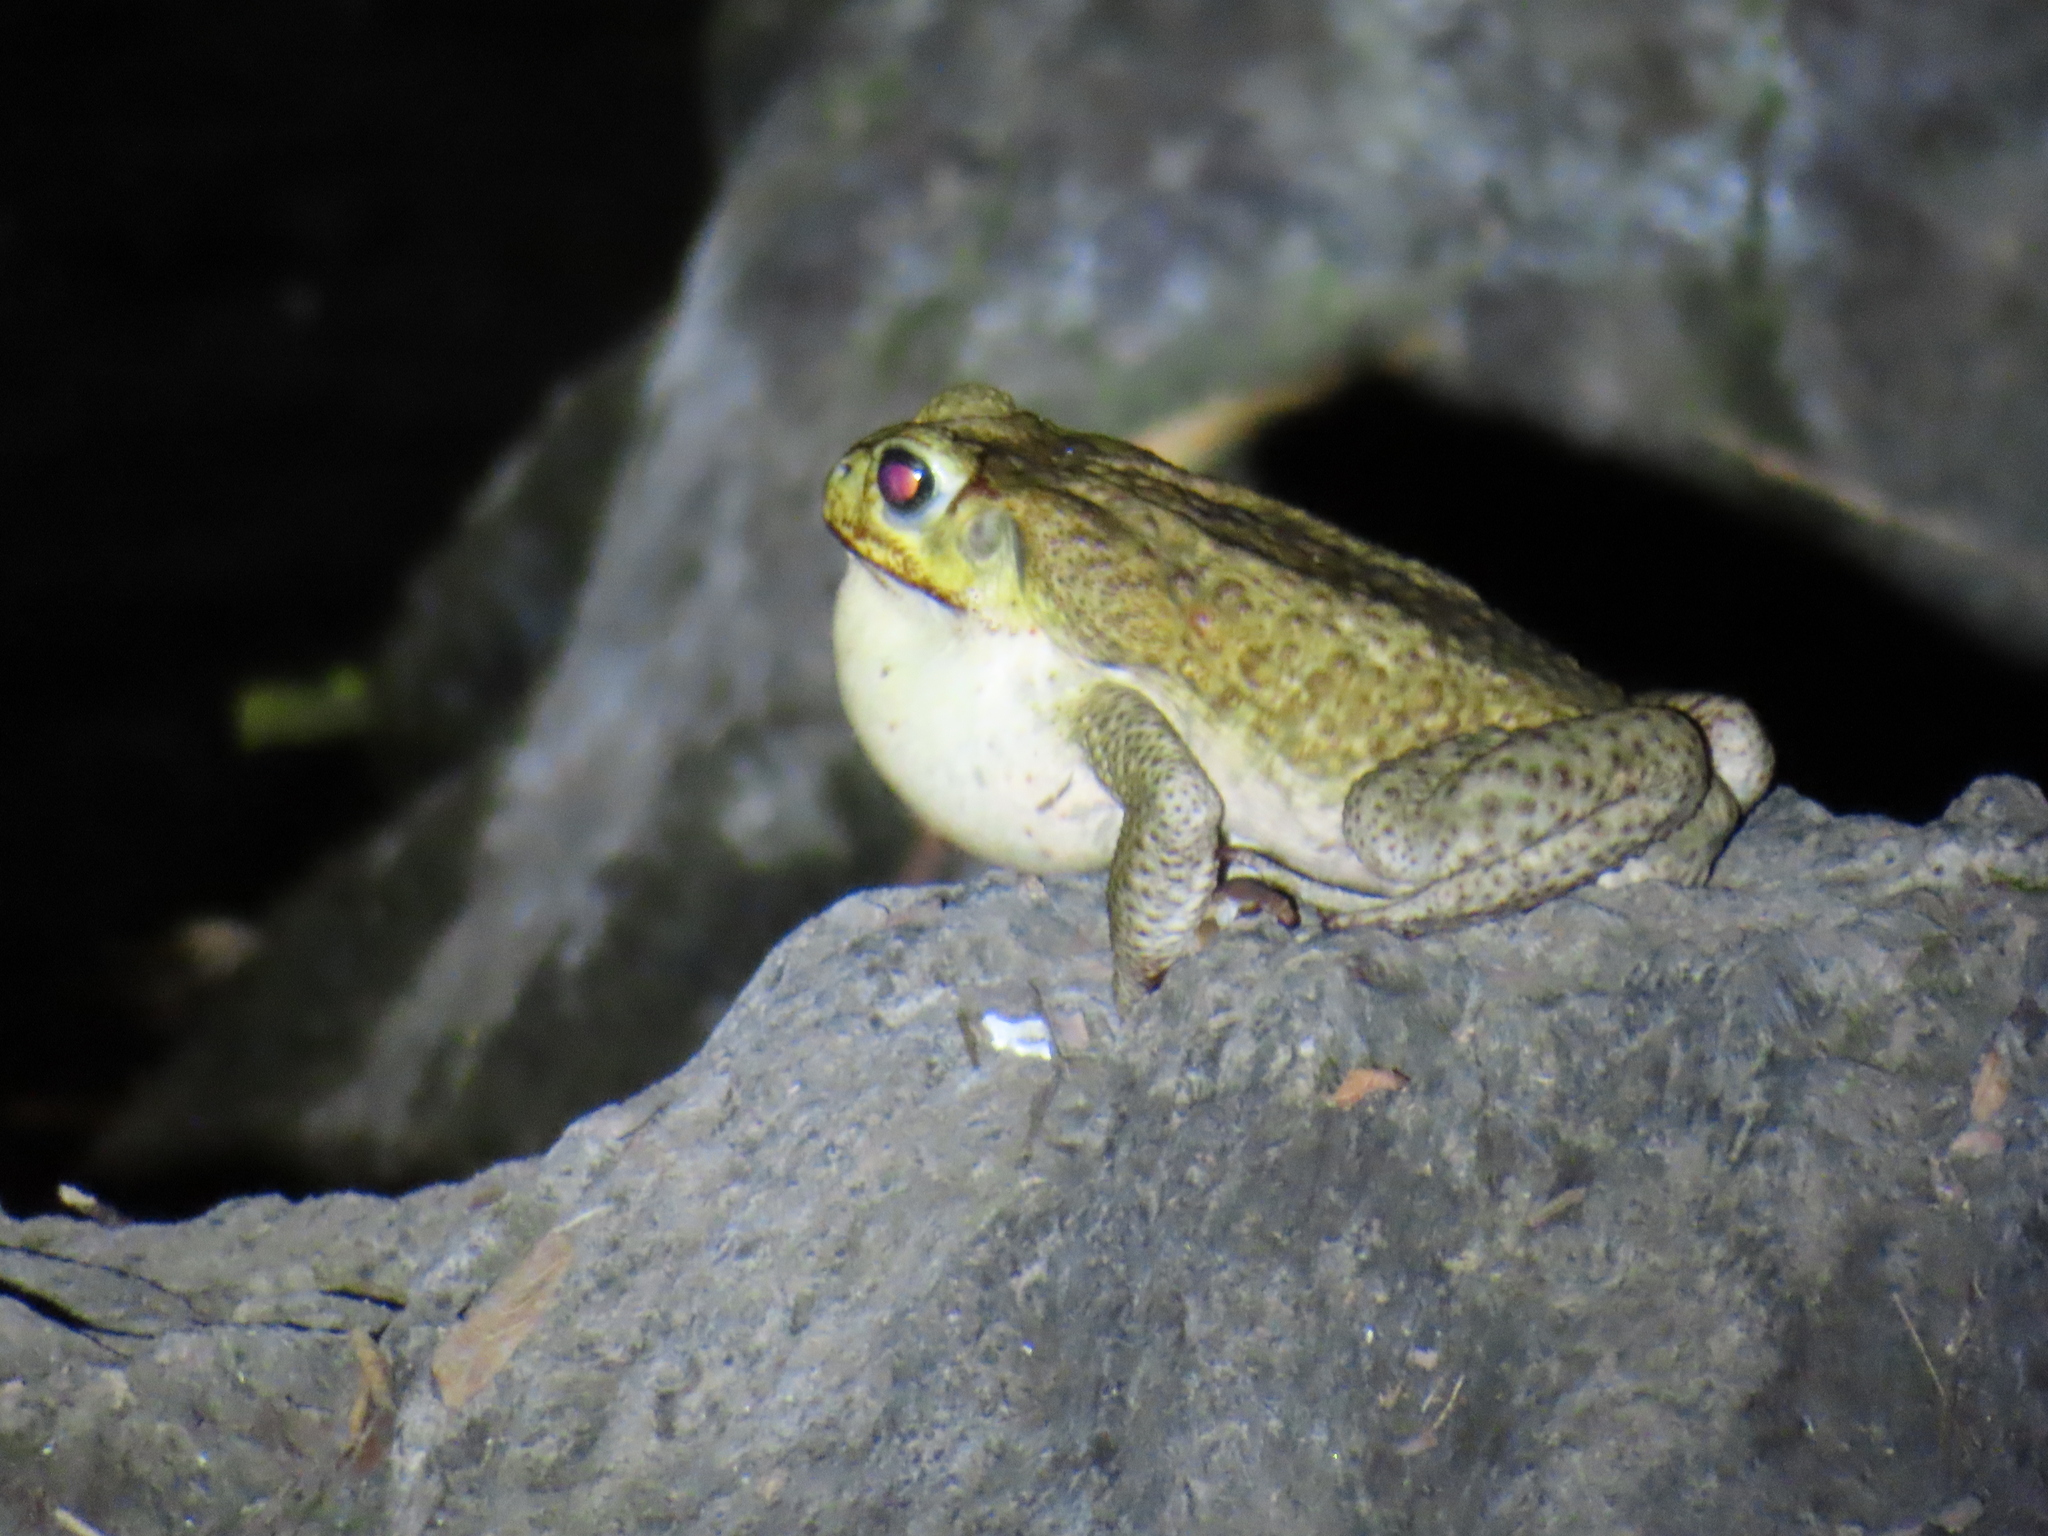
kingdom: Animalia
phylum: Chordata
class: Amphibia
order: Anura
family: Bufonidae
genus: Rhinella
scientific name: Rhinella horribilis
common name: Mesoamerican cane toad
